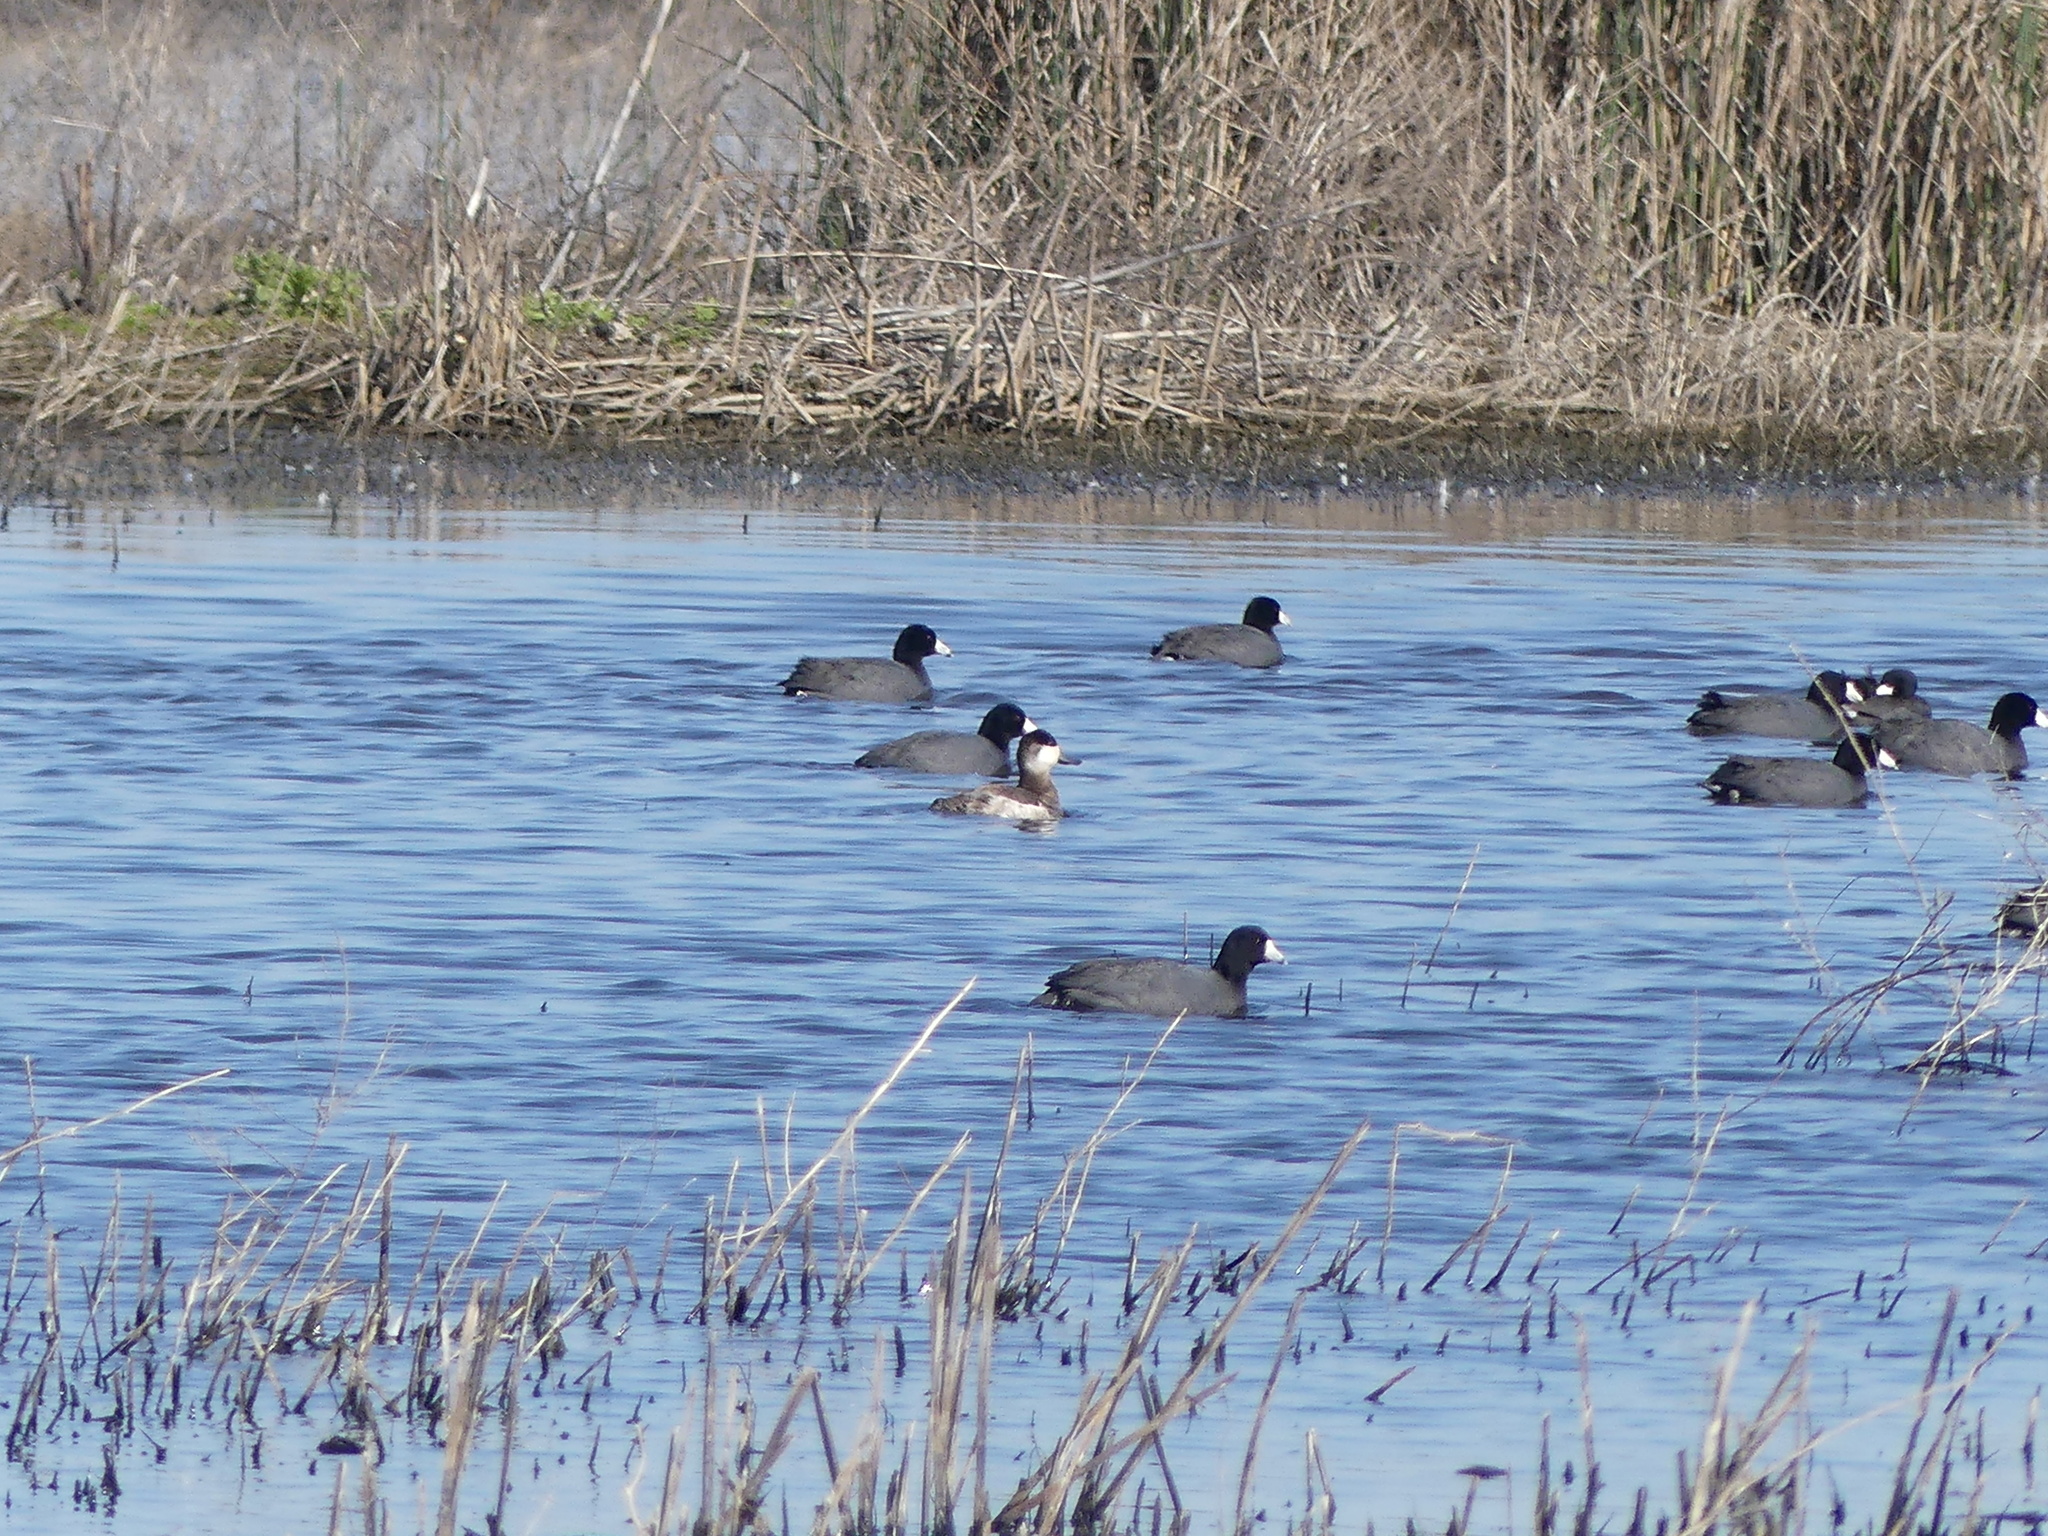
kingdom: Animalia
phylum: Chordata
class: Aves
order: Anseriformes
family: Anatidae
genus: Oxyura
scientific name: Oxyura jamaicensis
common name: Ruddy duck
